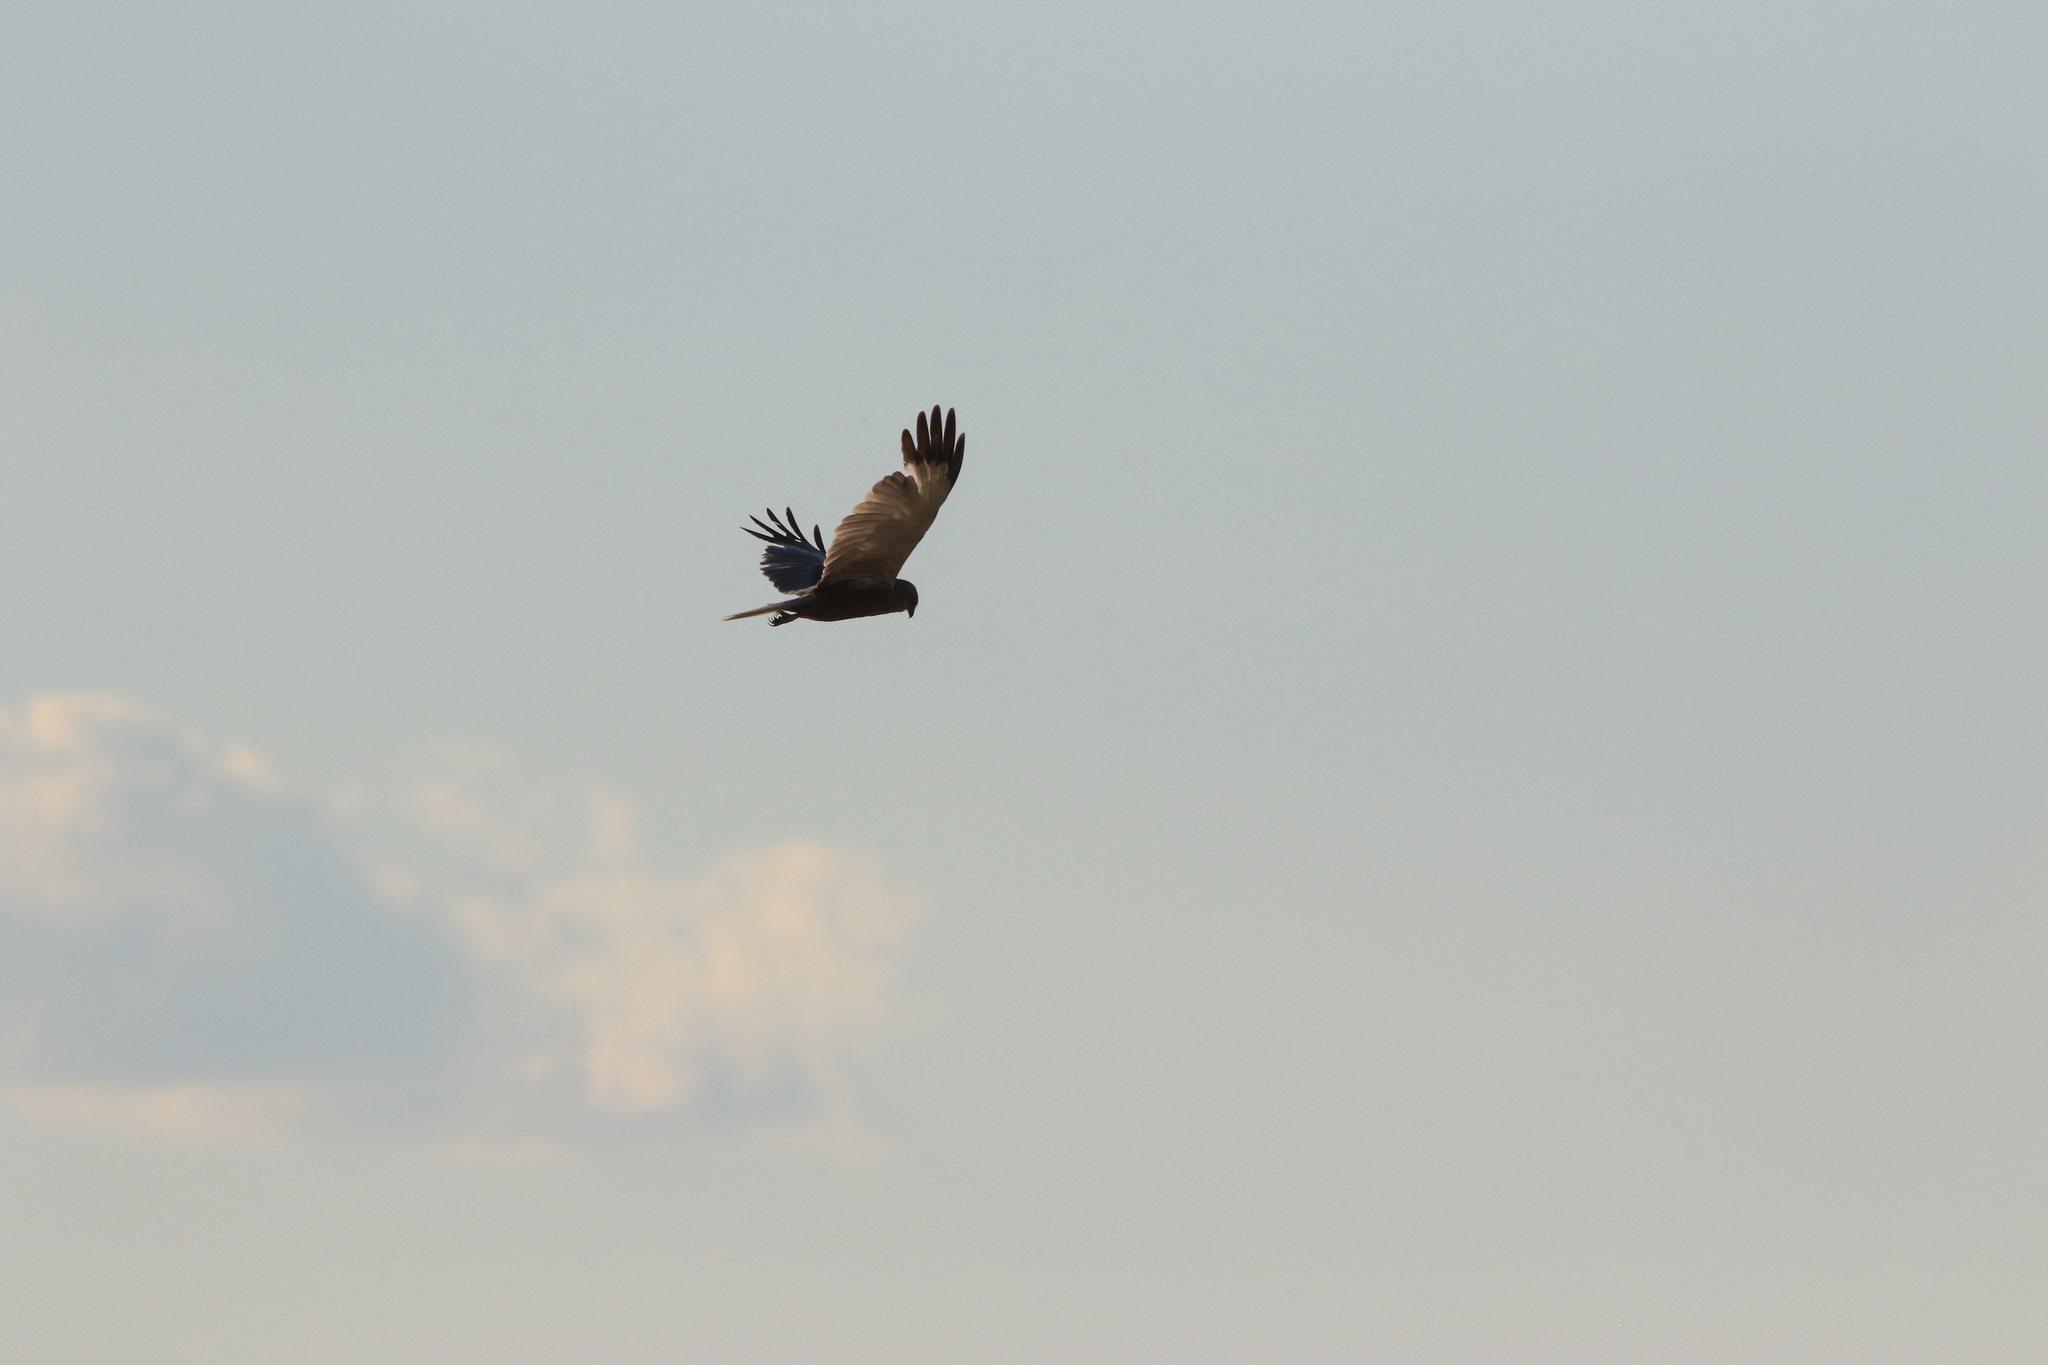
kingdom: Animalia
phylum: Chordata
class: Aves
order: Accipitriformes
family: Accipitridae
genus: Circus
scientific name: Circus aeruginosus
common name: Western marsh harrier
